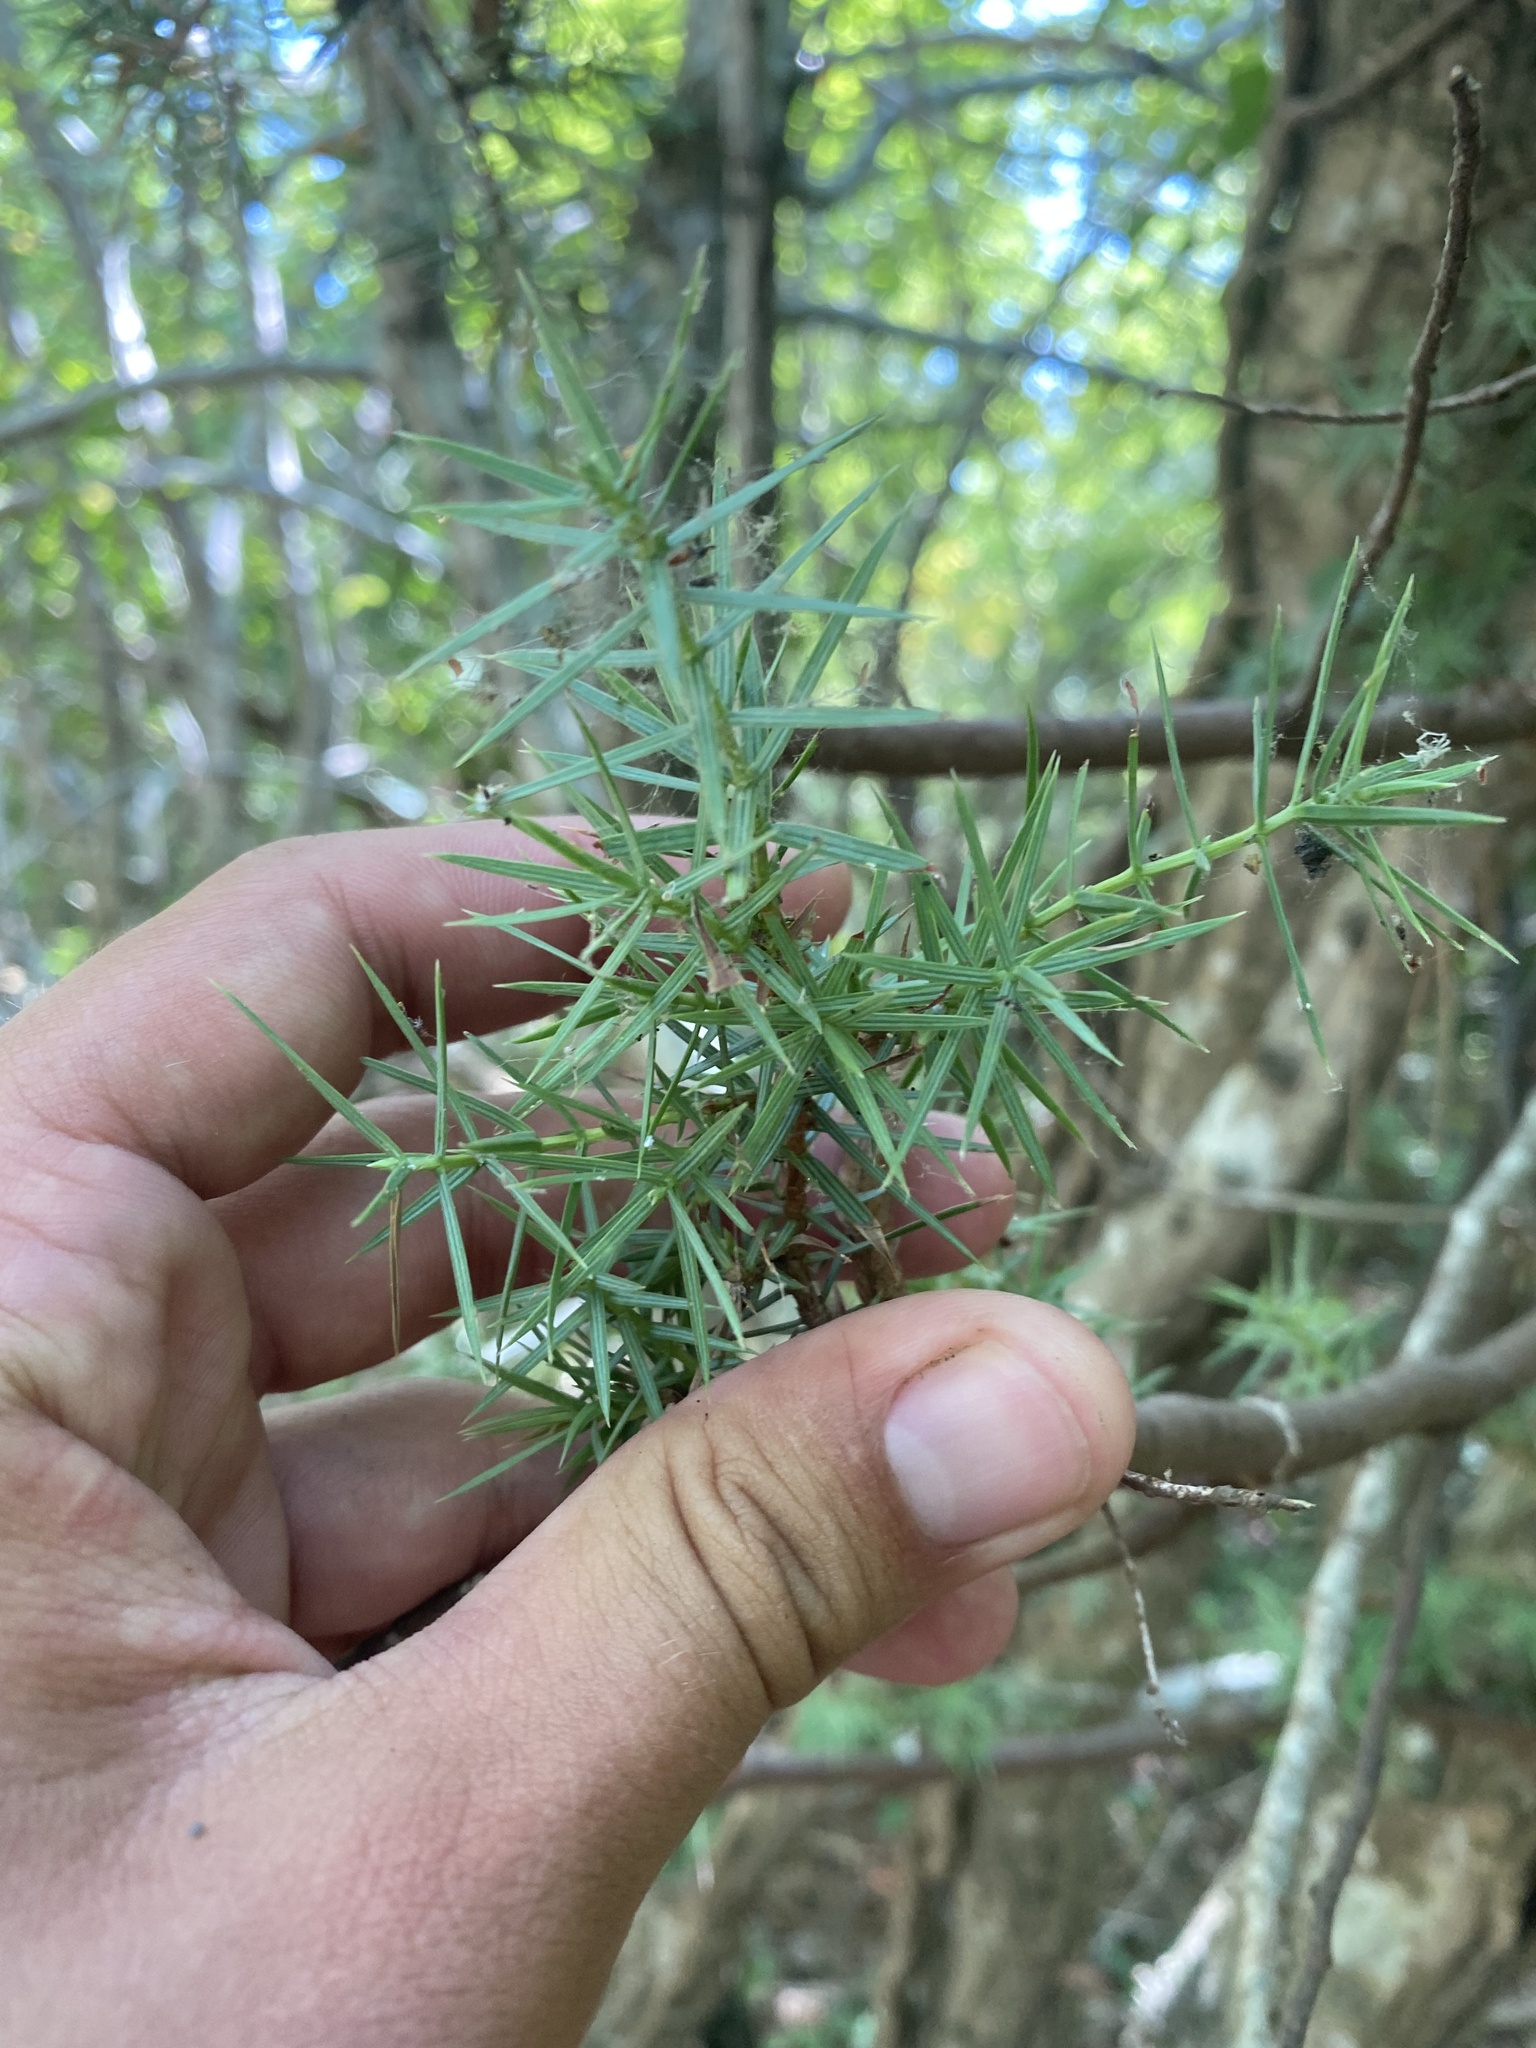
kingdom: Plantae
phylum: Tracheophyta
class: Pinopsida
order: Pinales
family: Cupressaceae
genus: Juniperus
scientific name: Juniperus oxycedrus
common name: Prickly juniper
